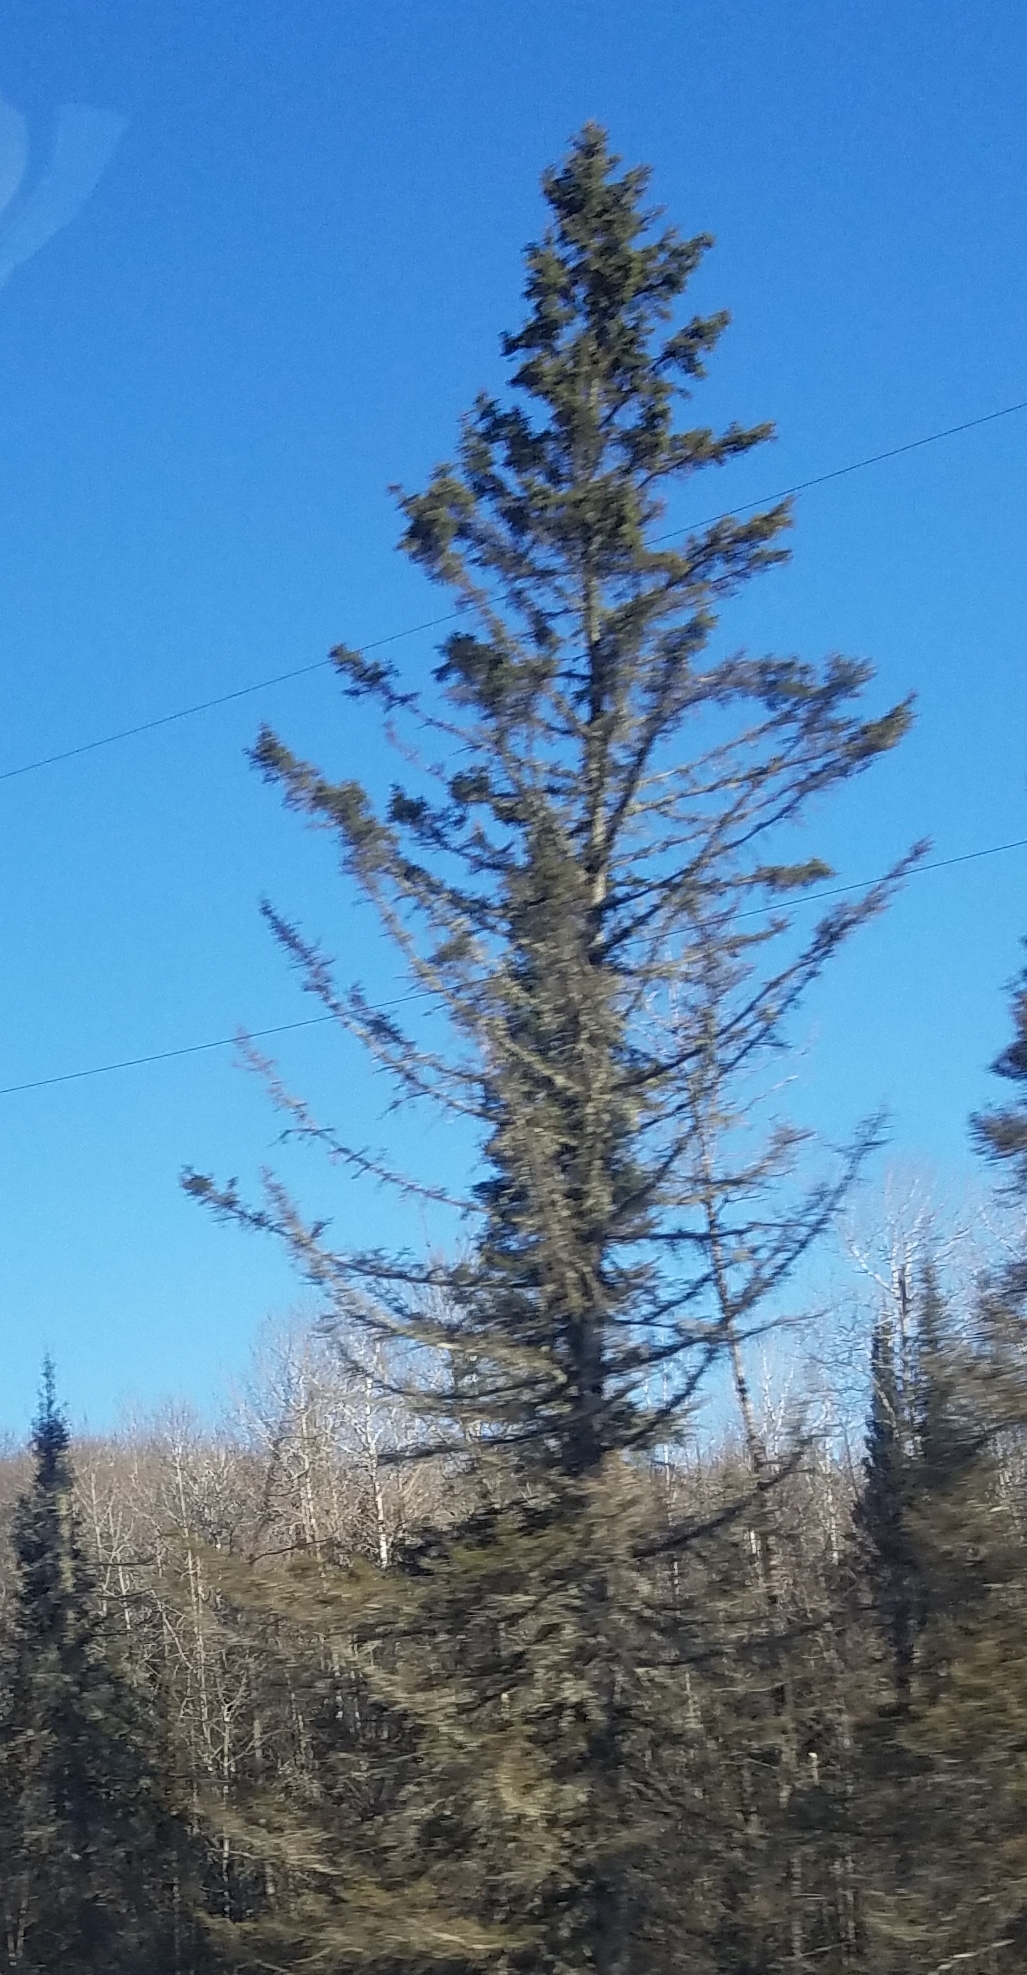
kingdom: Plantae
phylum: Tracheophyta
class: Pinopsida
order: Pinales
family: Pinaceae
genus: Picea
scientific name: Picea mariana
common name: Black spruce
